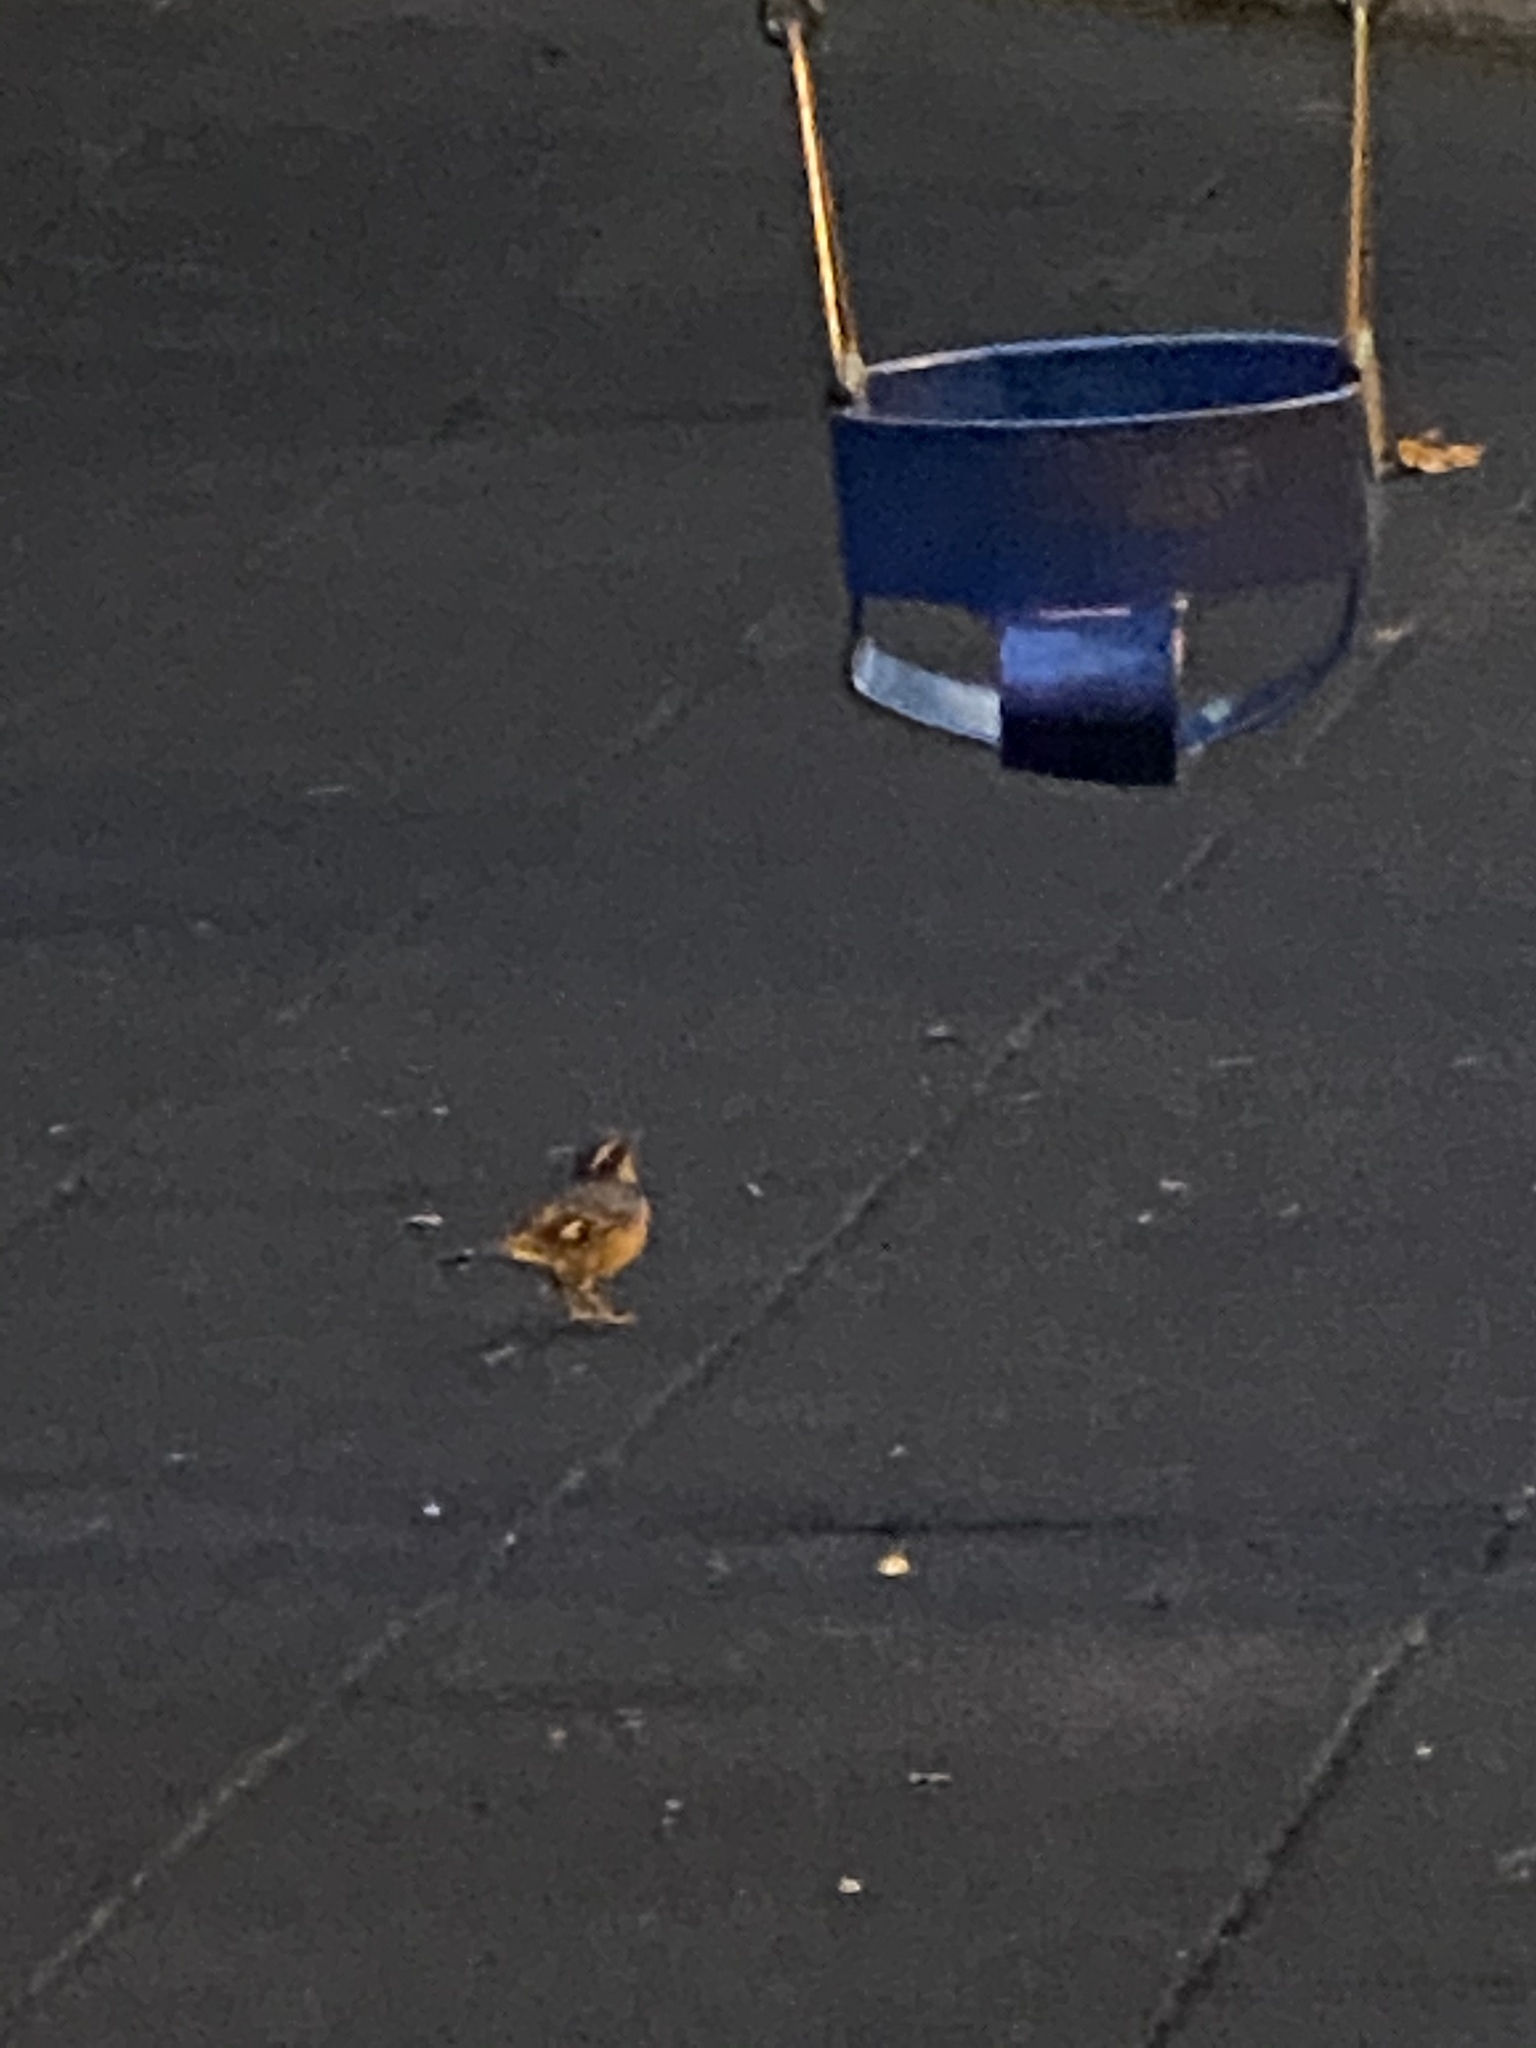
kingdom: Animalia
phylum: Chordata
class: Aves
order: Passeriformes
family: Turdidae
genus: Ixoreus
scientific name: Ixoreus naevius
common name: Varied thrush
